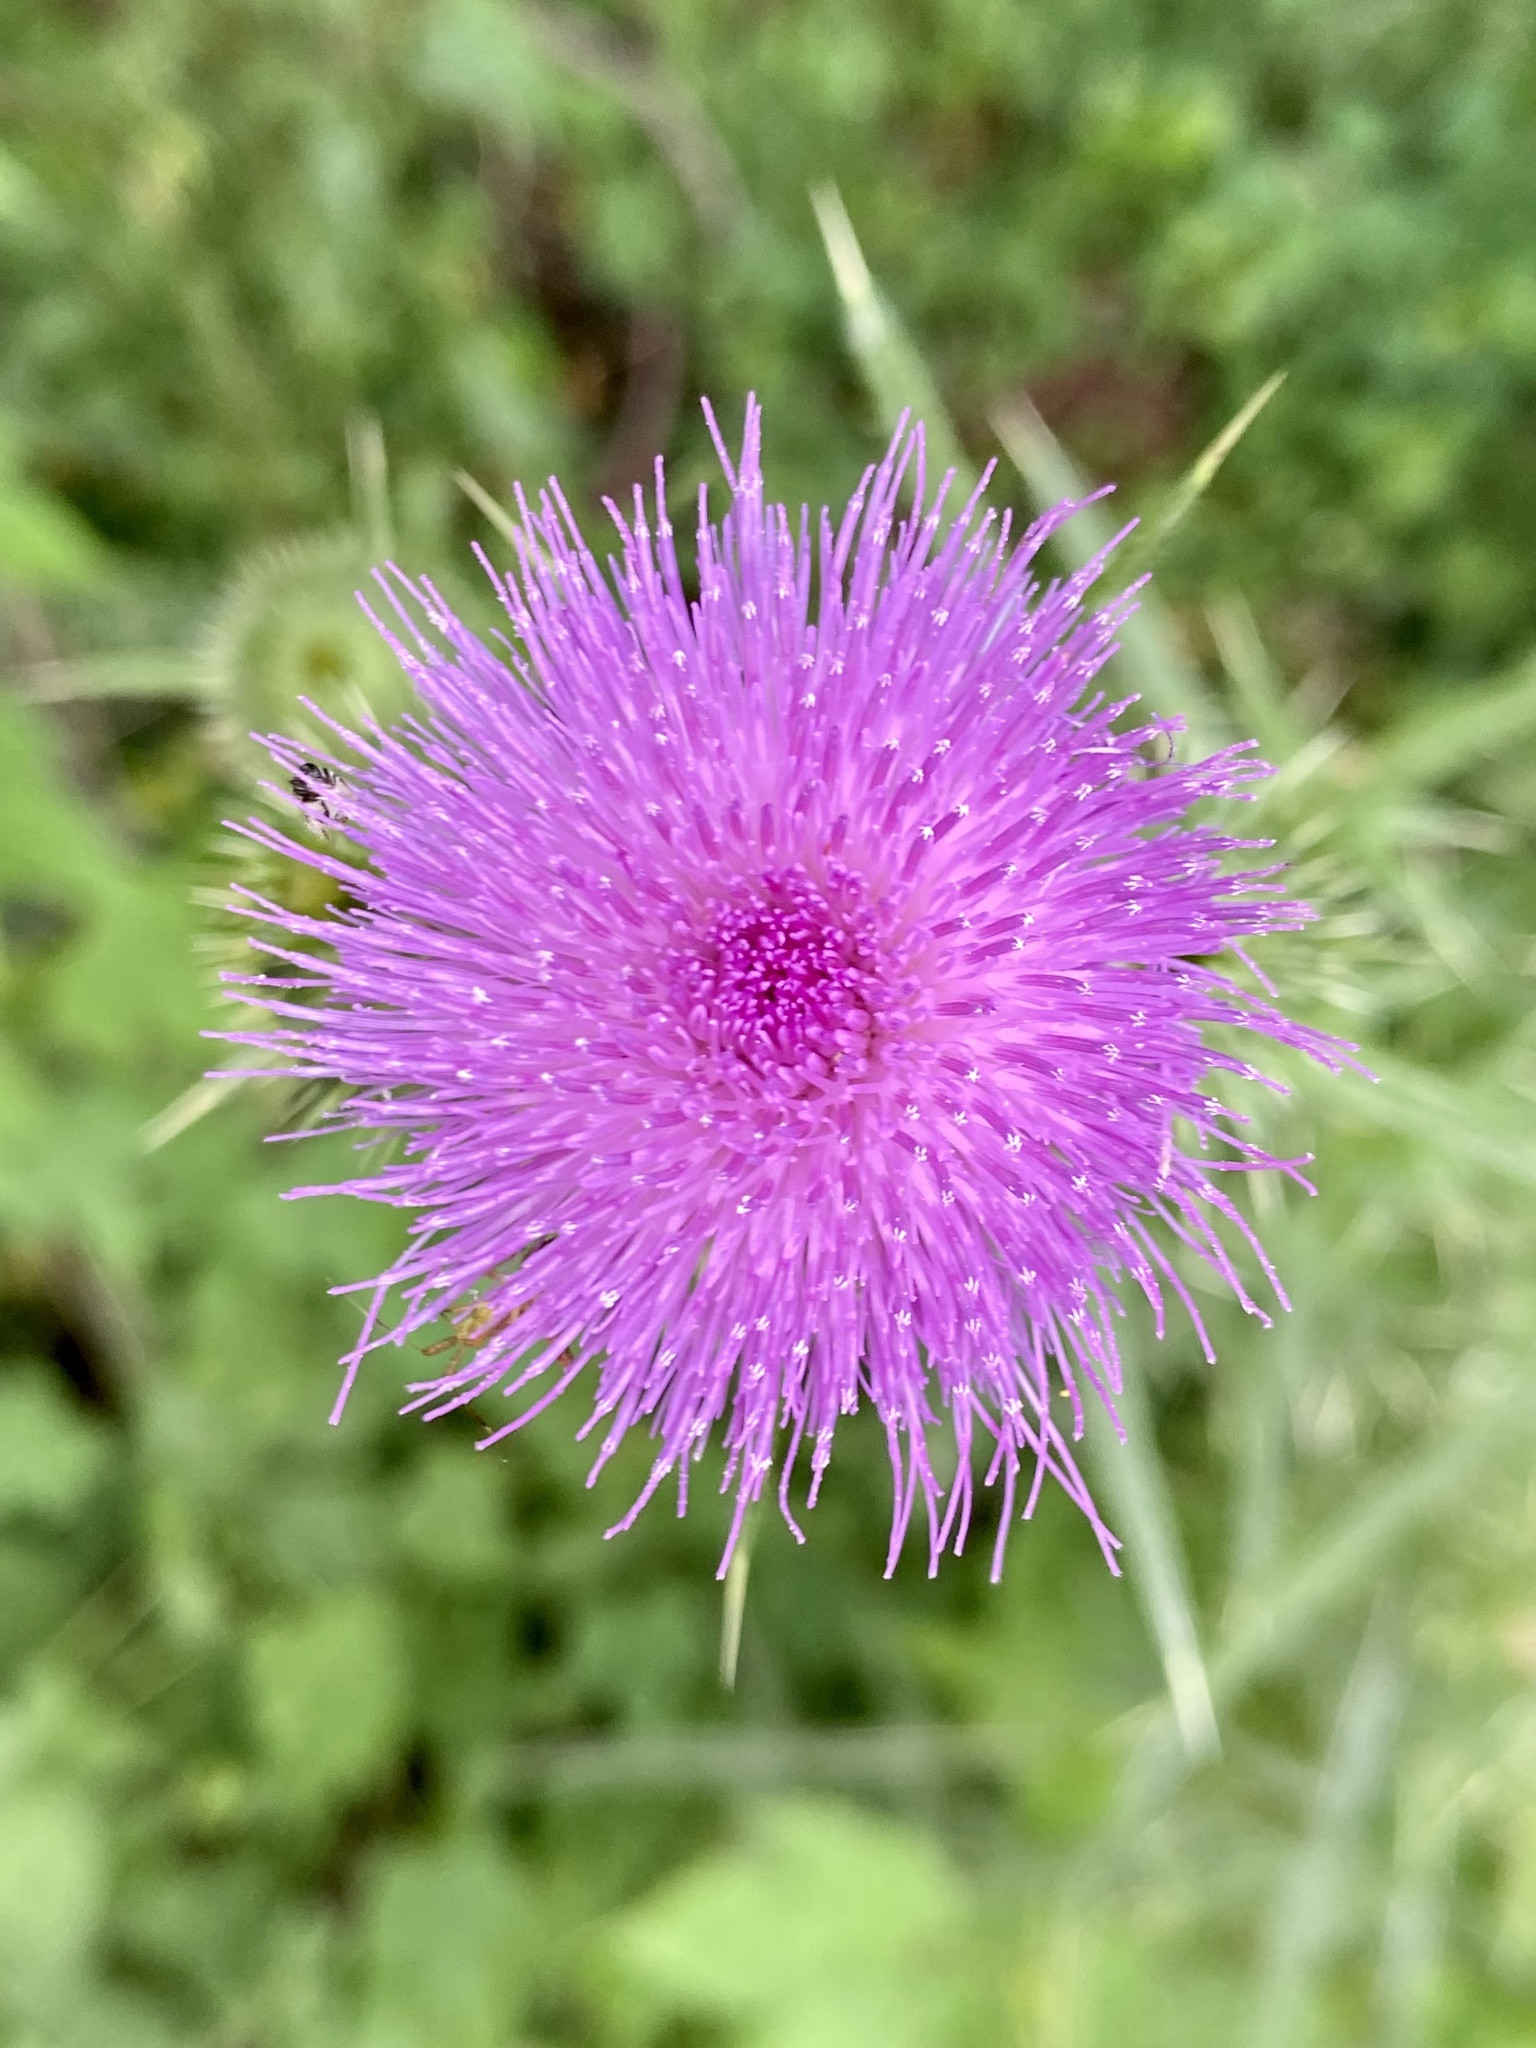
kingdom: Plantae
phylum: Tracheophyta
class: Magnoliopsida
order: Asterales
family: Asteraceae
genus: Cirsium
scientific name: Cirsium vulgare
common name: Bull thistle
